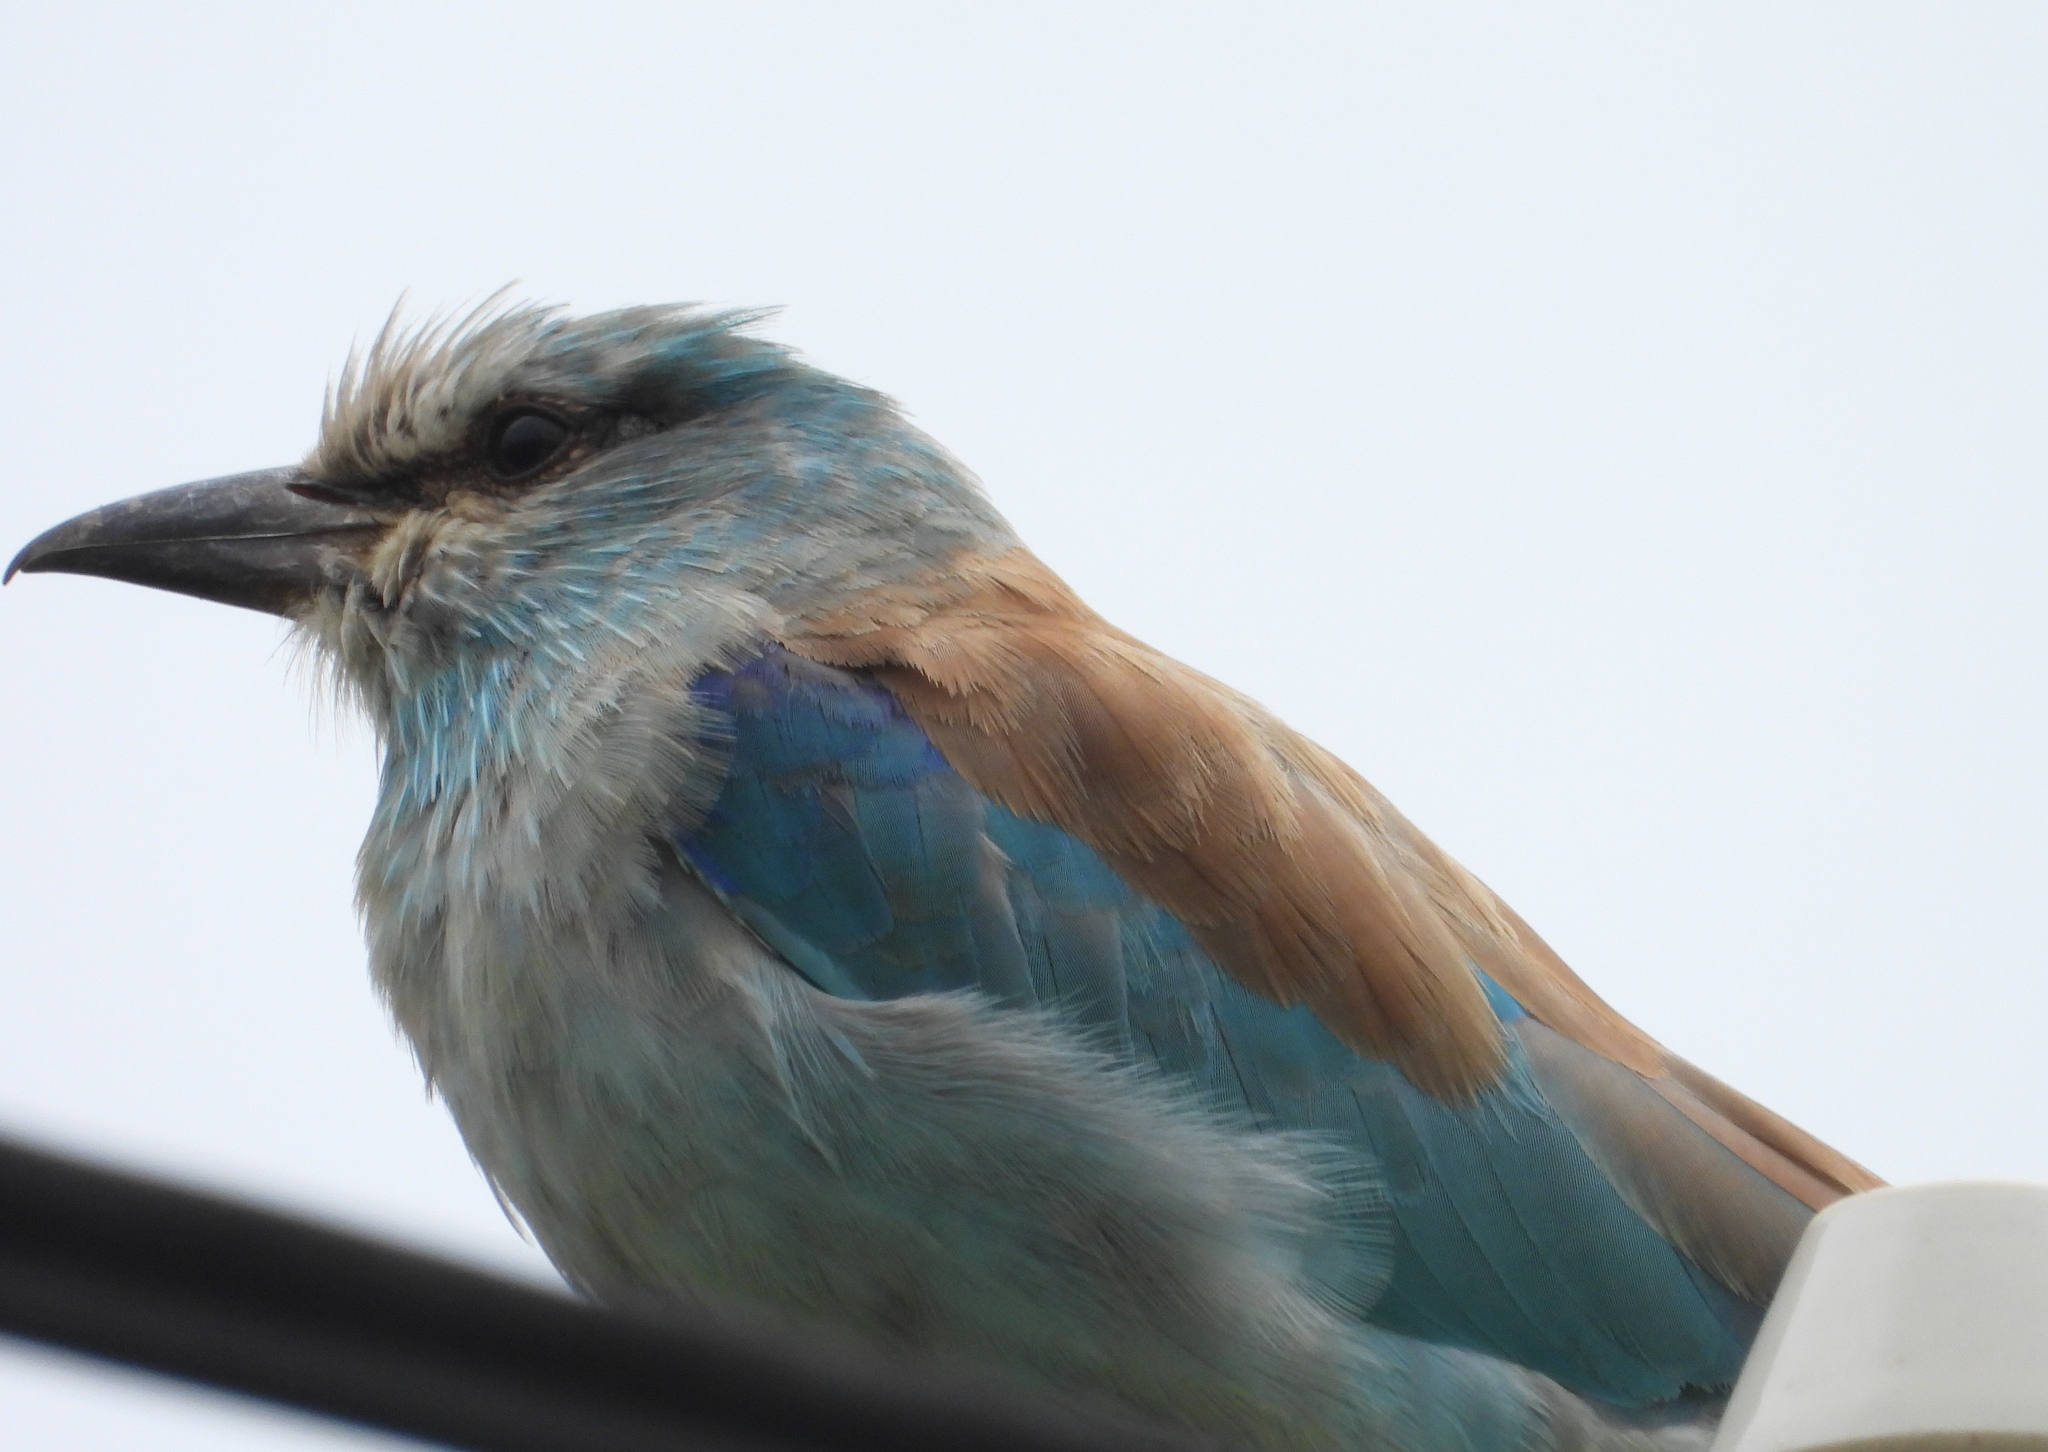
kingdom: Animalia
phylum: Chordata
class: Aves
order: Coraciiformes
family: Coraciidae
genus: Coracias
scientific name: Coracias garrulus
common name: European roller
